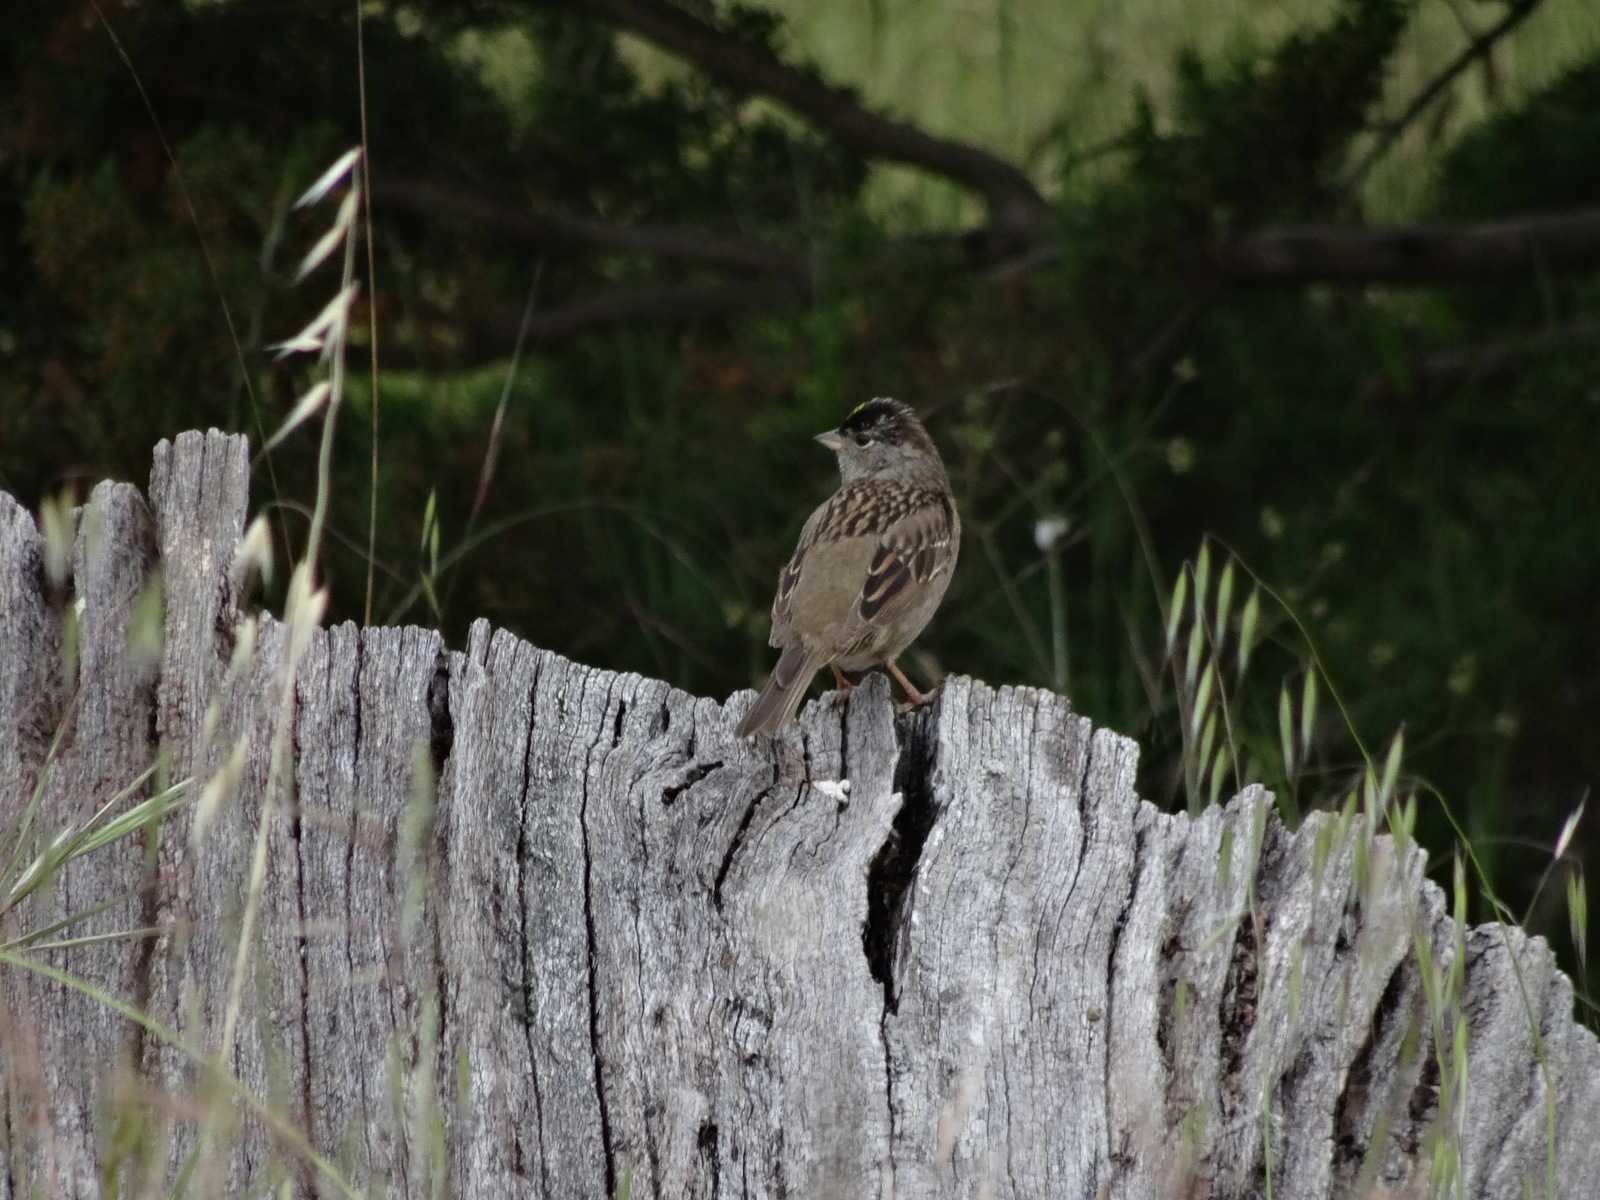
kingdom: Animalia
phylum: Chordata
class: Aves
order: Passeriformes
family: Passerellidae
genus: Zonotrichia
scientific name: Zonotrichia atricapilla
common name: Golden-crowned sparrow
